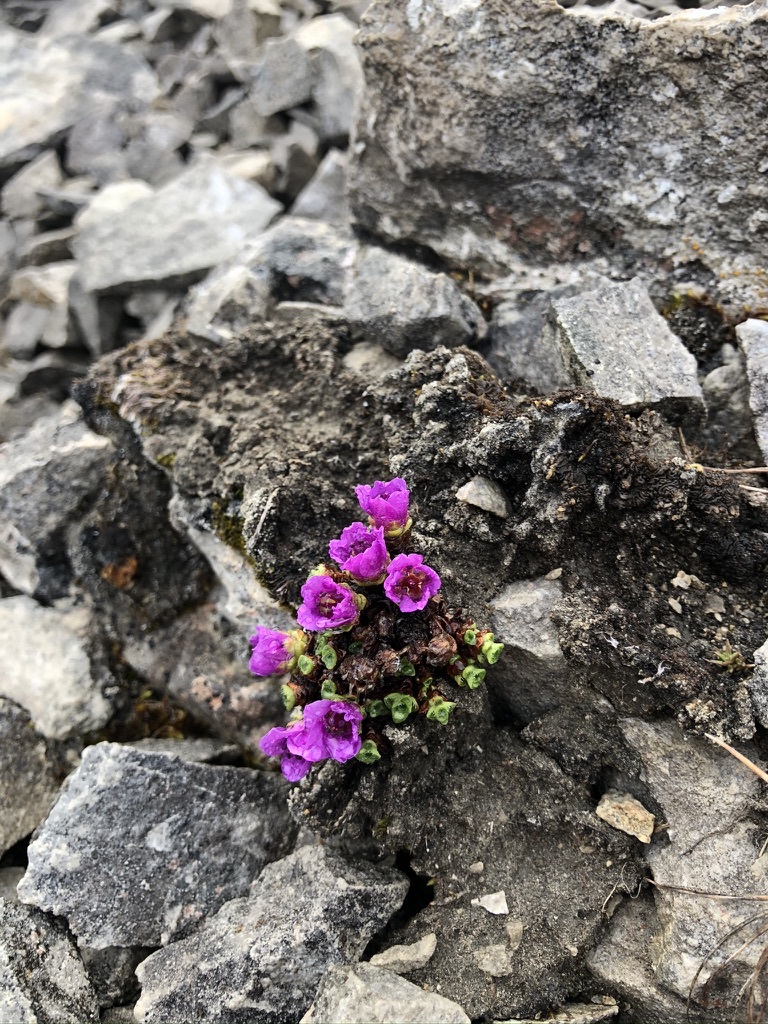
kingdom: Plantae
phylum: Tracheophyta
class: Magnoliopsida
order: Saxifragales
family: Saxifragaceae
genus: Saxifraga
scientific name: Saxifraga oppositifolia
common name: Purple saxifrage
